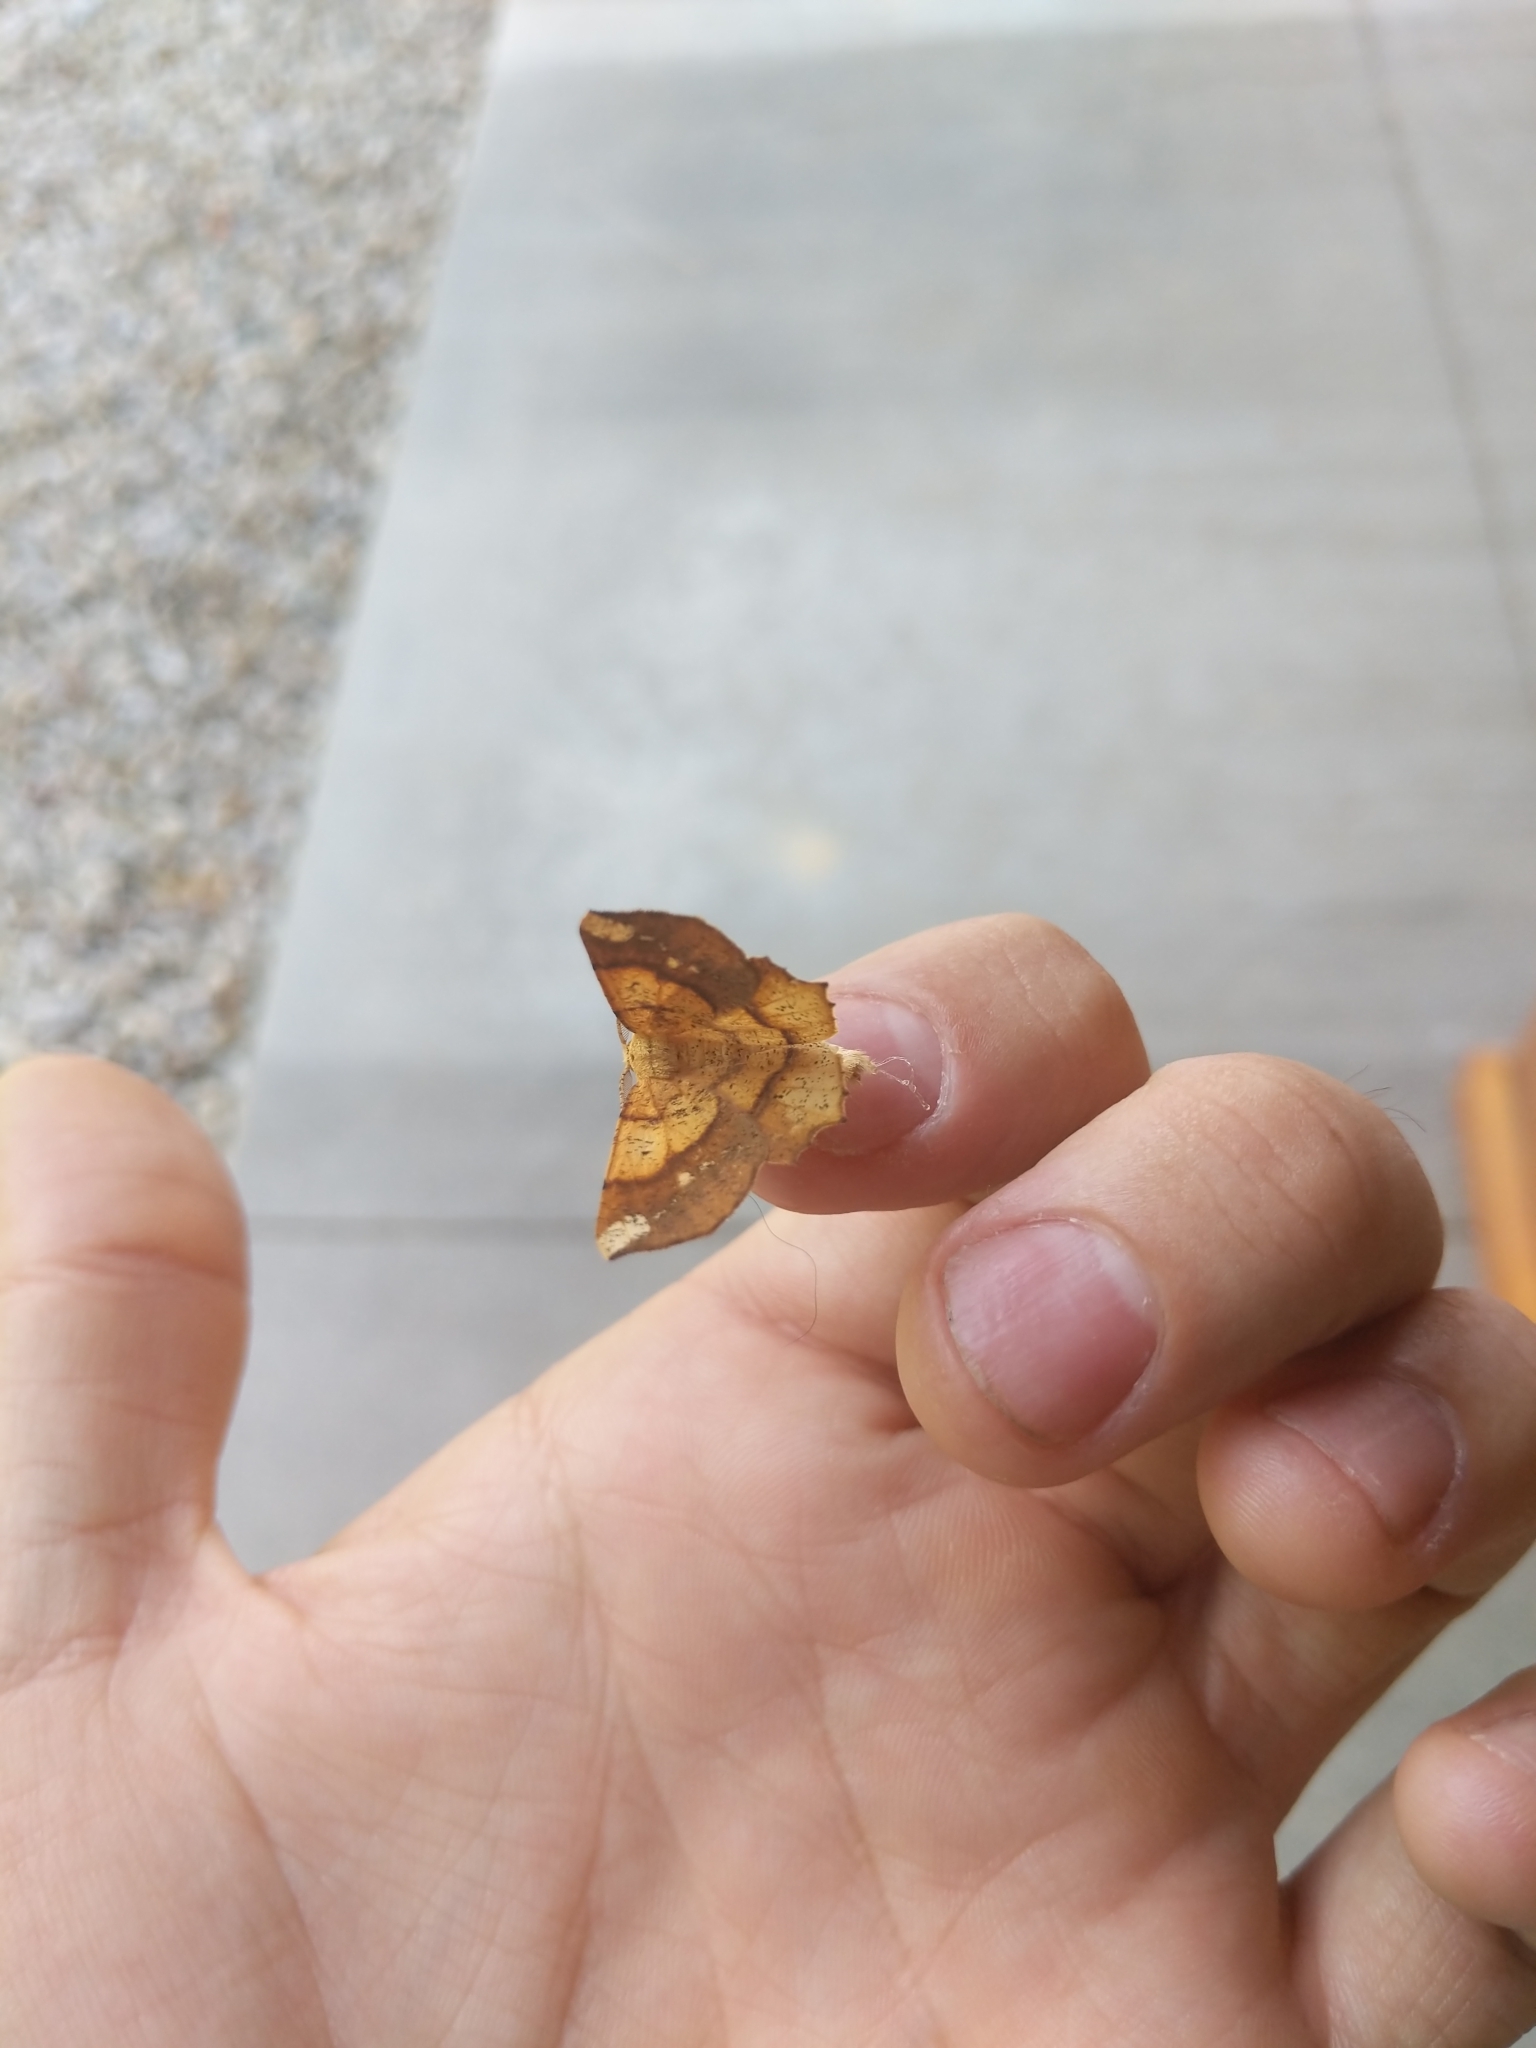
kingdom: Animalia
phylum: Arthropoda
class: Insecta
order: Lepidoptera
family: Geometridae
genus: Euchlaena
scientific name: Euchlaena amoenaria
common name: Deep yellow euchlaena
